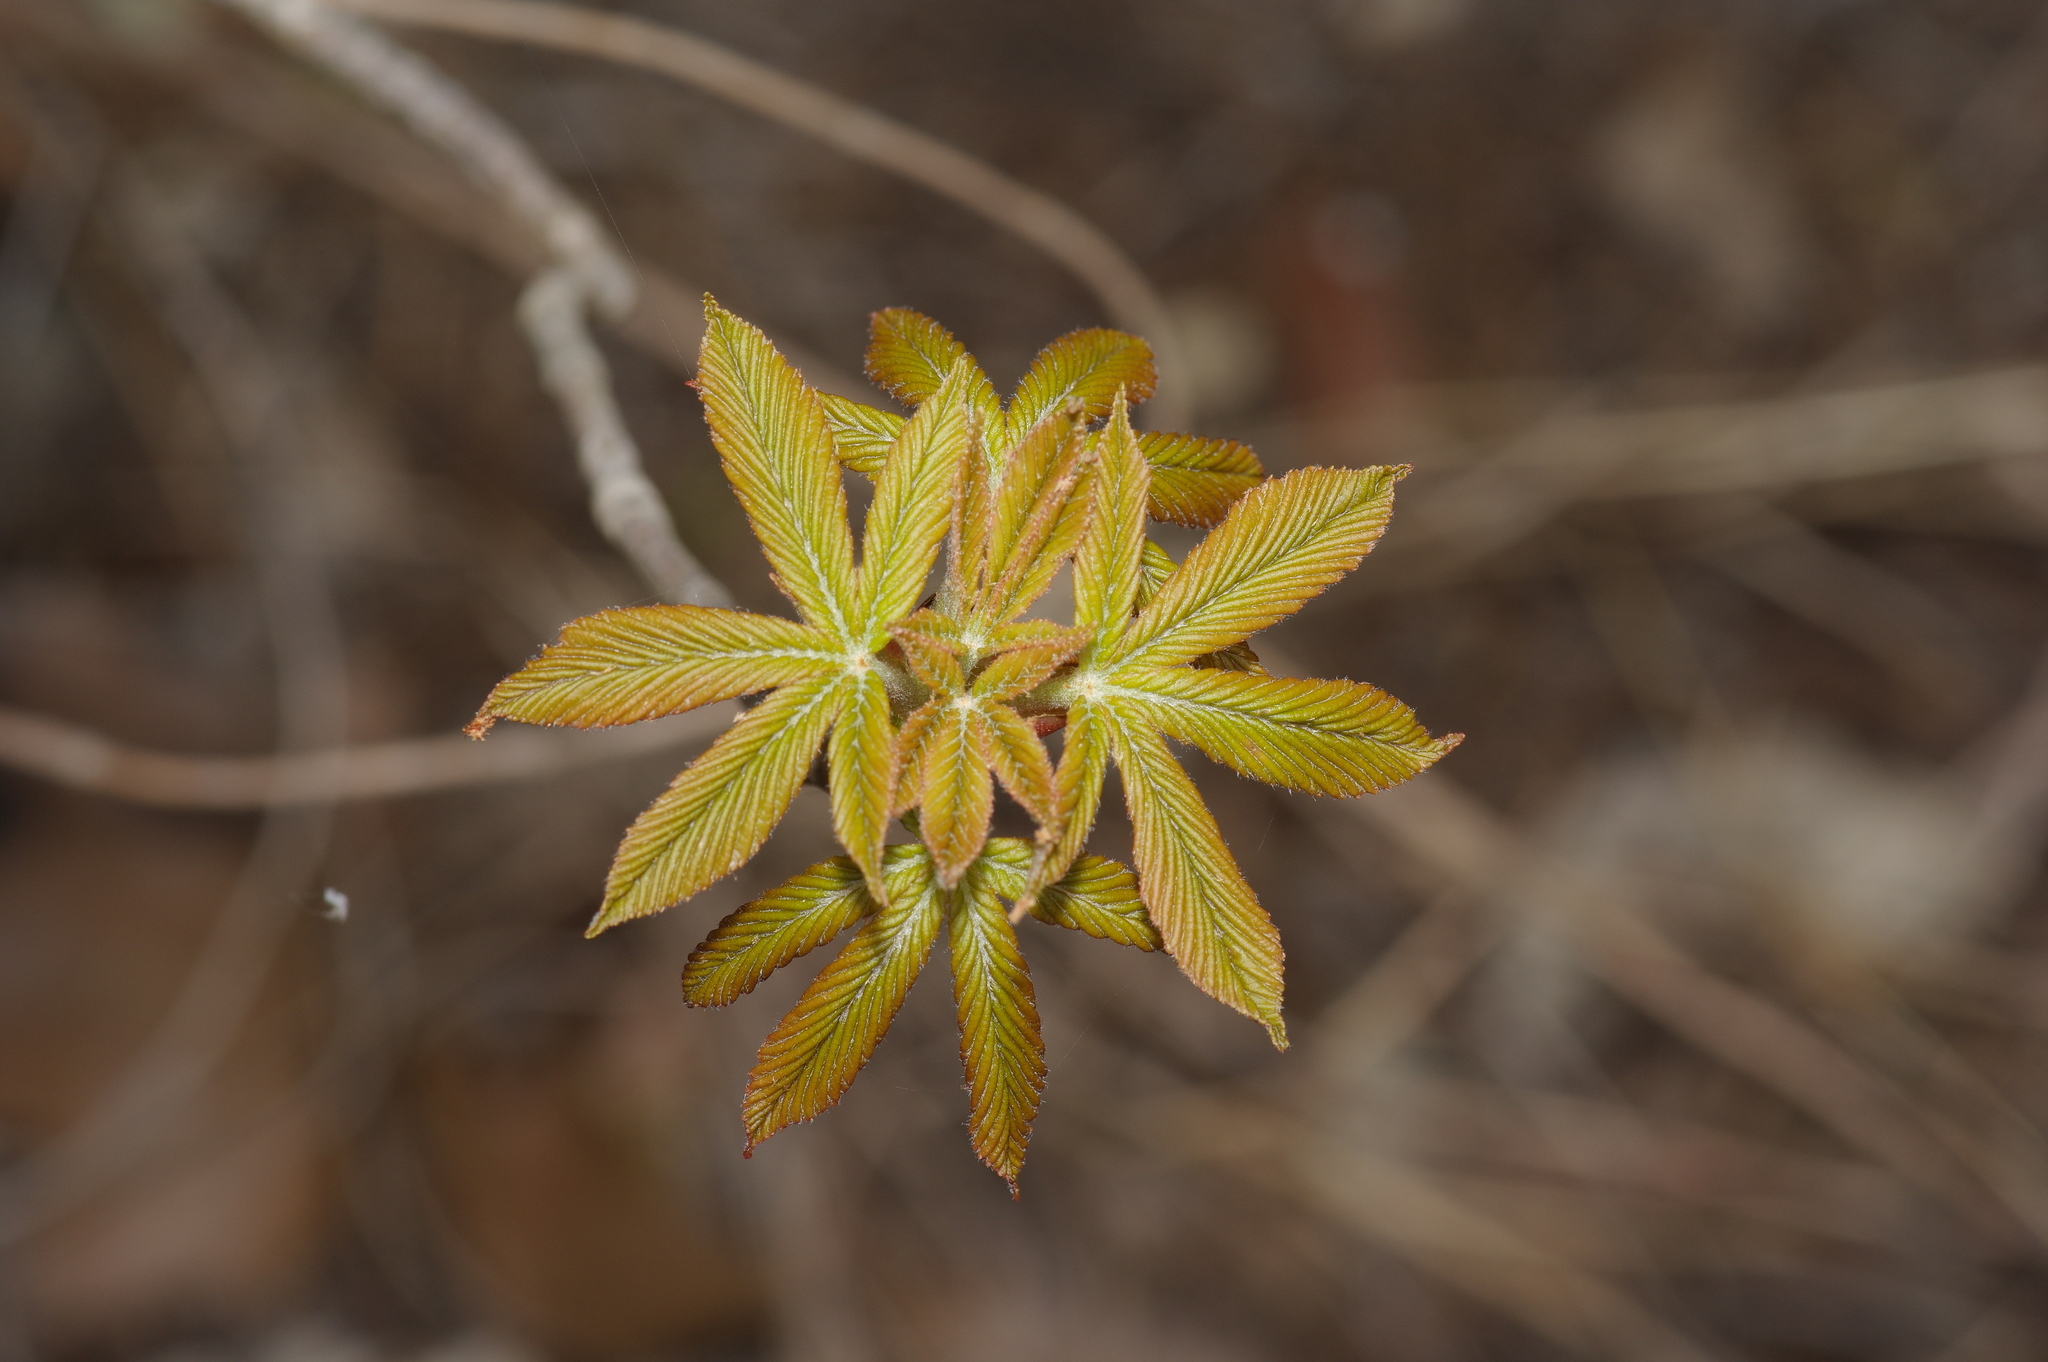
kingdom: Plantae
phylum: Tracheophyta
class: Magnoliopsida
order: Sapindales
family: Sapindaceae
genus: Aesculus
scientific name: Aesculus pavia
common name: Red buckeye
